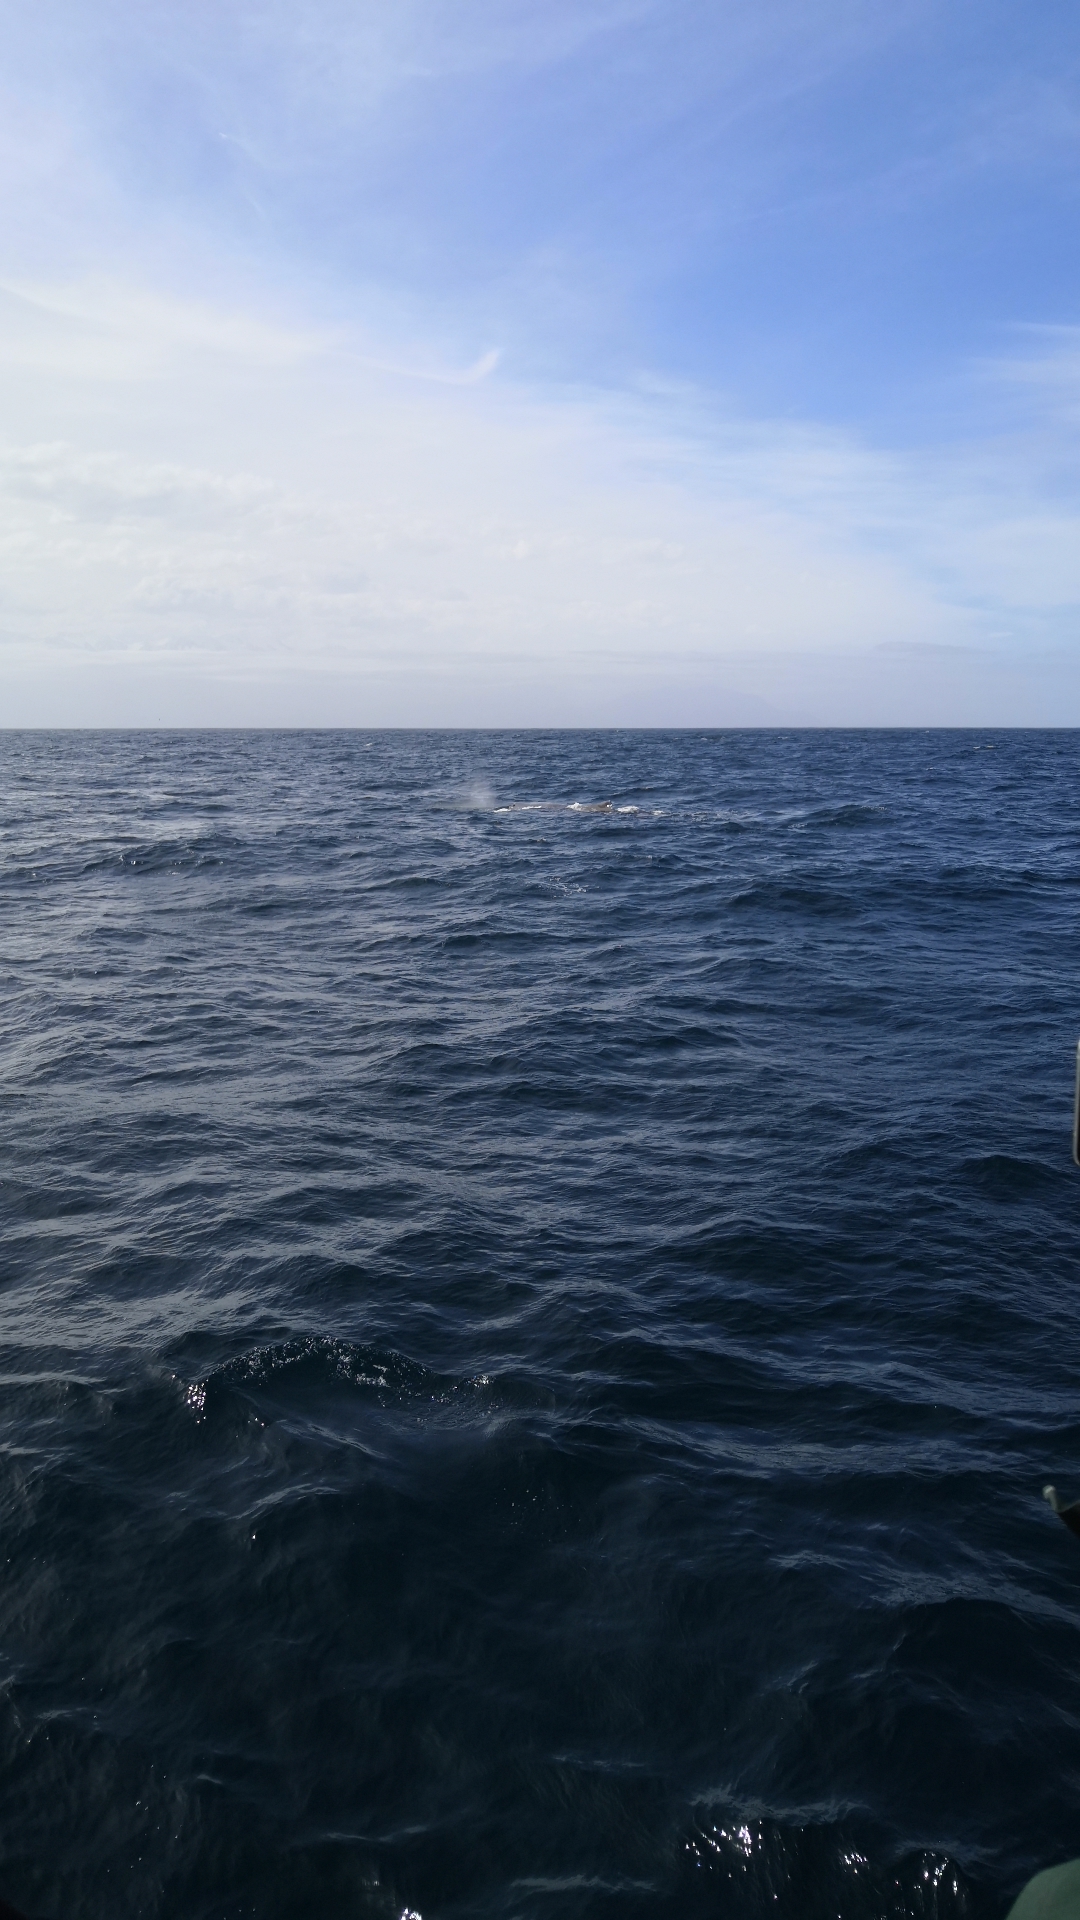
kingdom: Animalia
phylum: Chordata
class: Mammalia
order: Cetacea
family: Physeteridae
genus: Physeter
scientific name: Physeter macrocephalus
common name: Sperm whale
